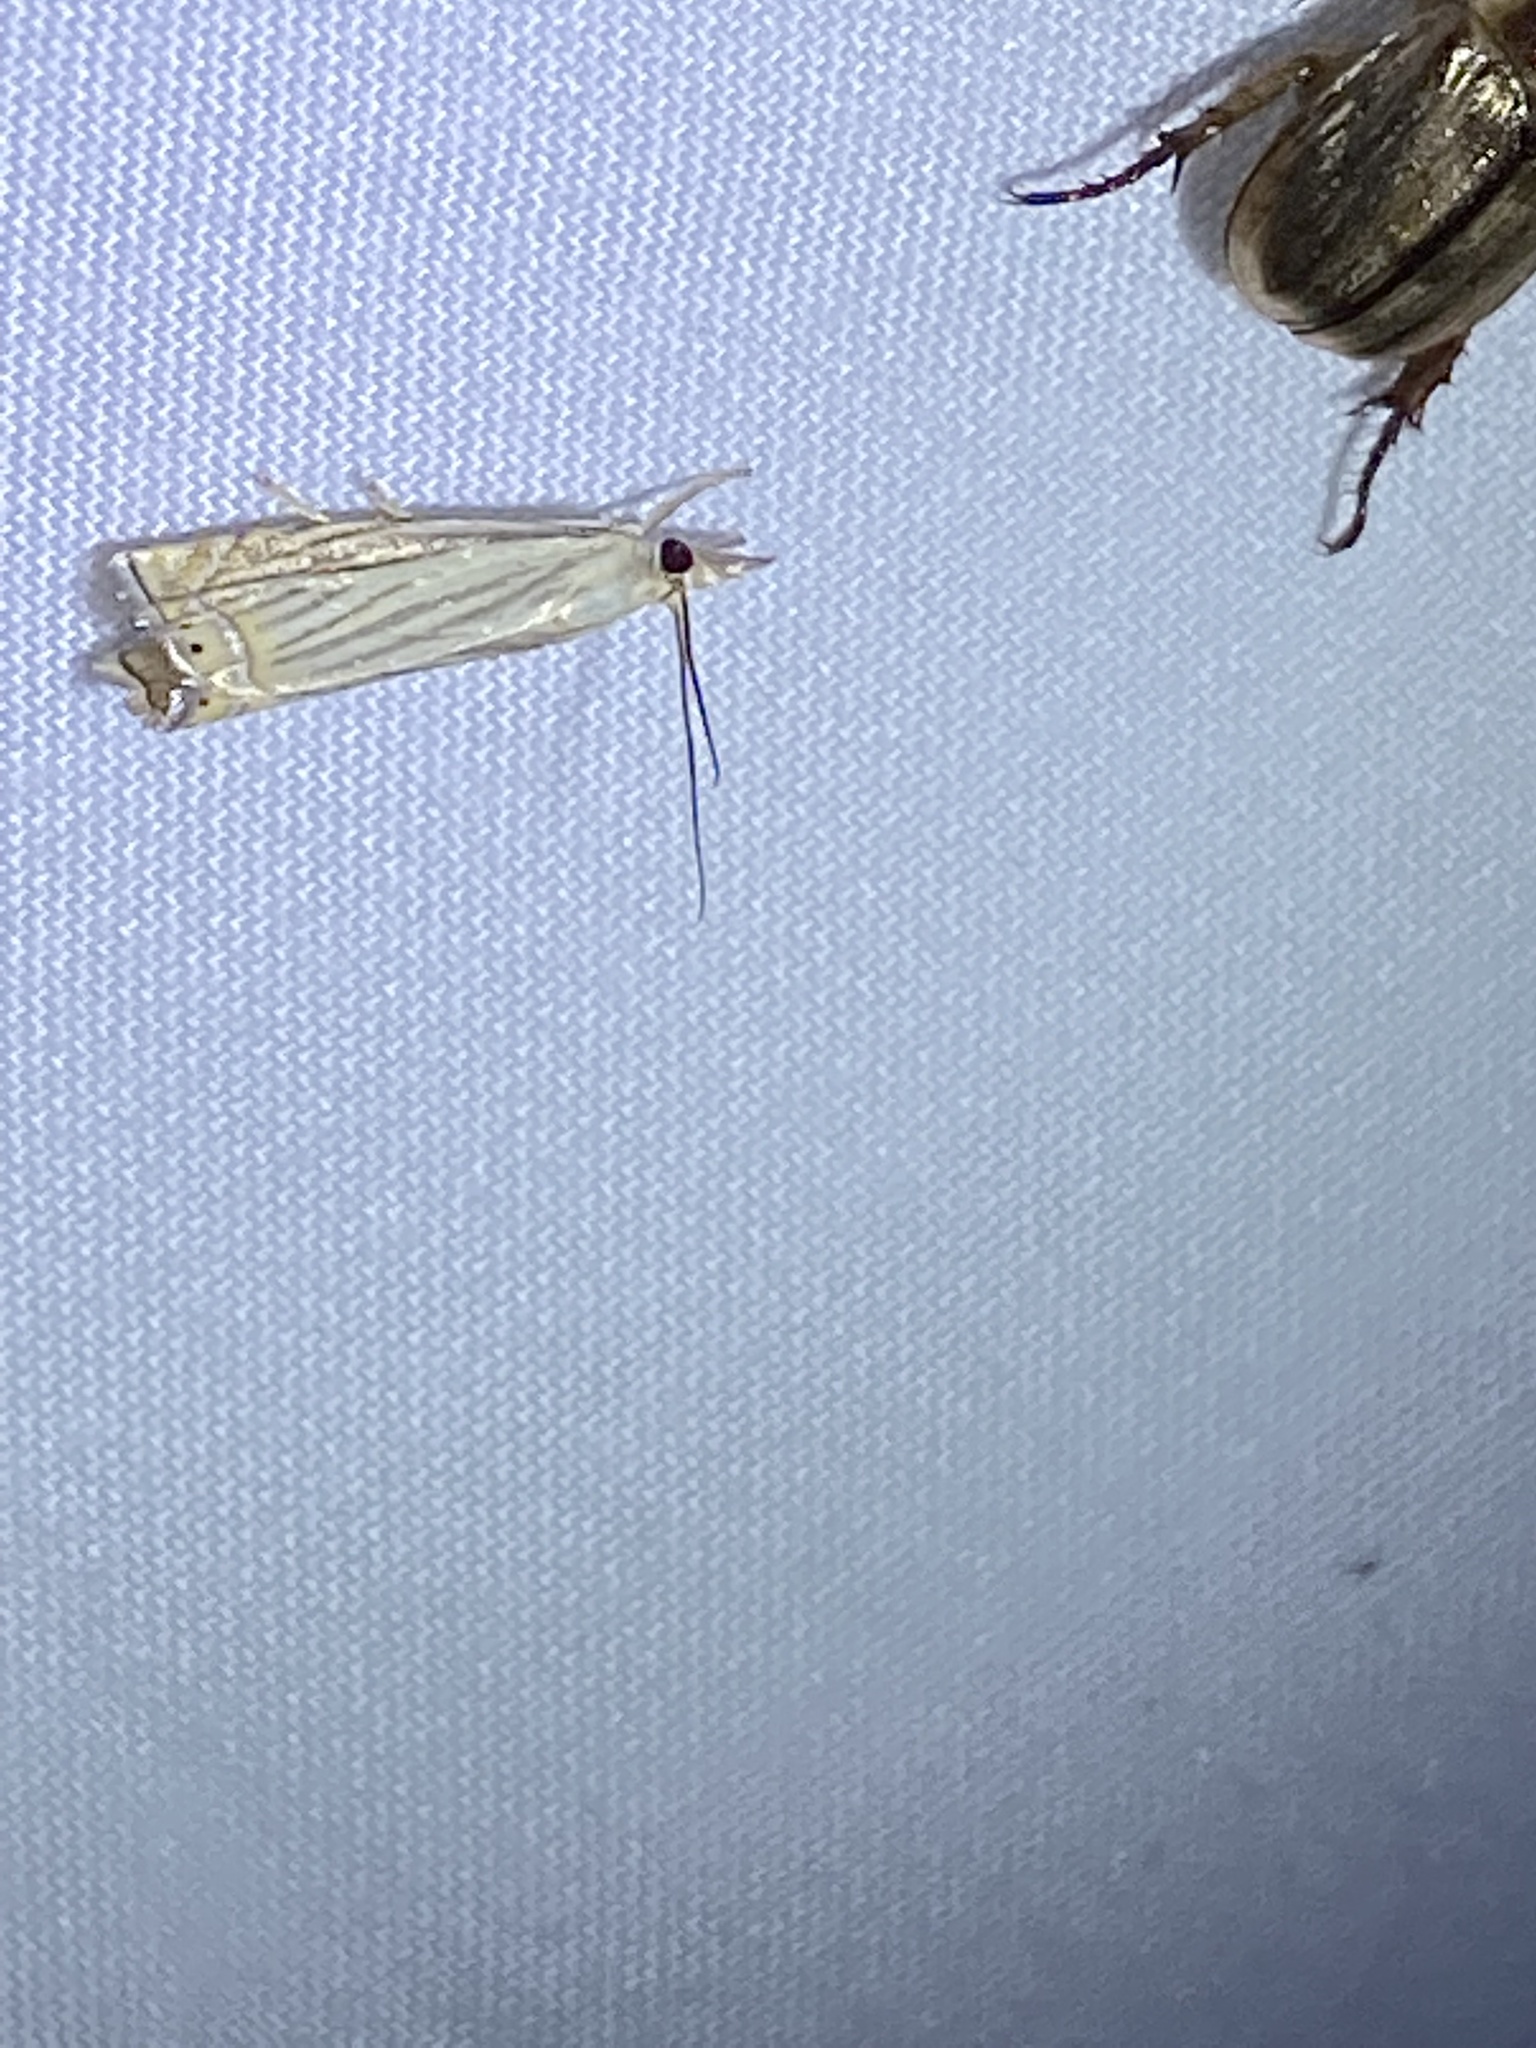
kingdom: Animalia
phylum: Arthropoda
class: Insecta
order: Lepidoptera
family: Crambidae
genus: Chrysoteuchia
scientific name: Chrysoteuchia topiarius
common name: Topiary grass-veneer
